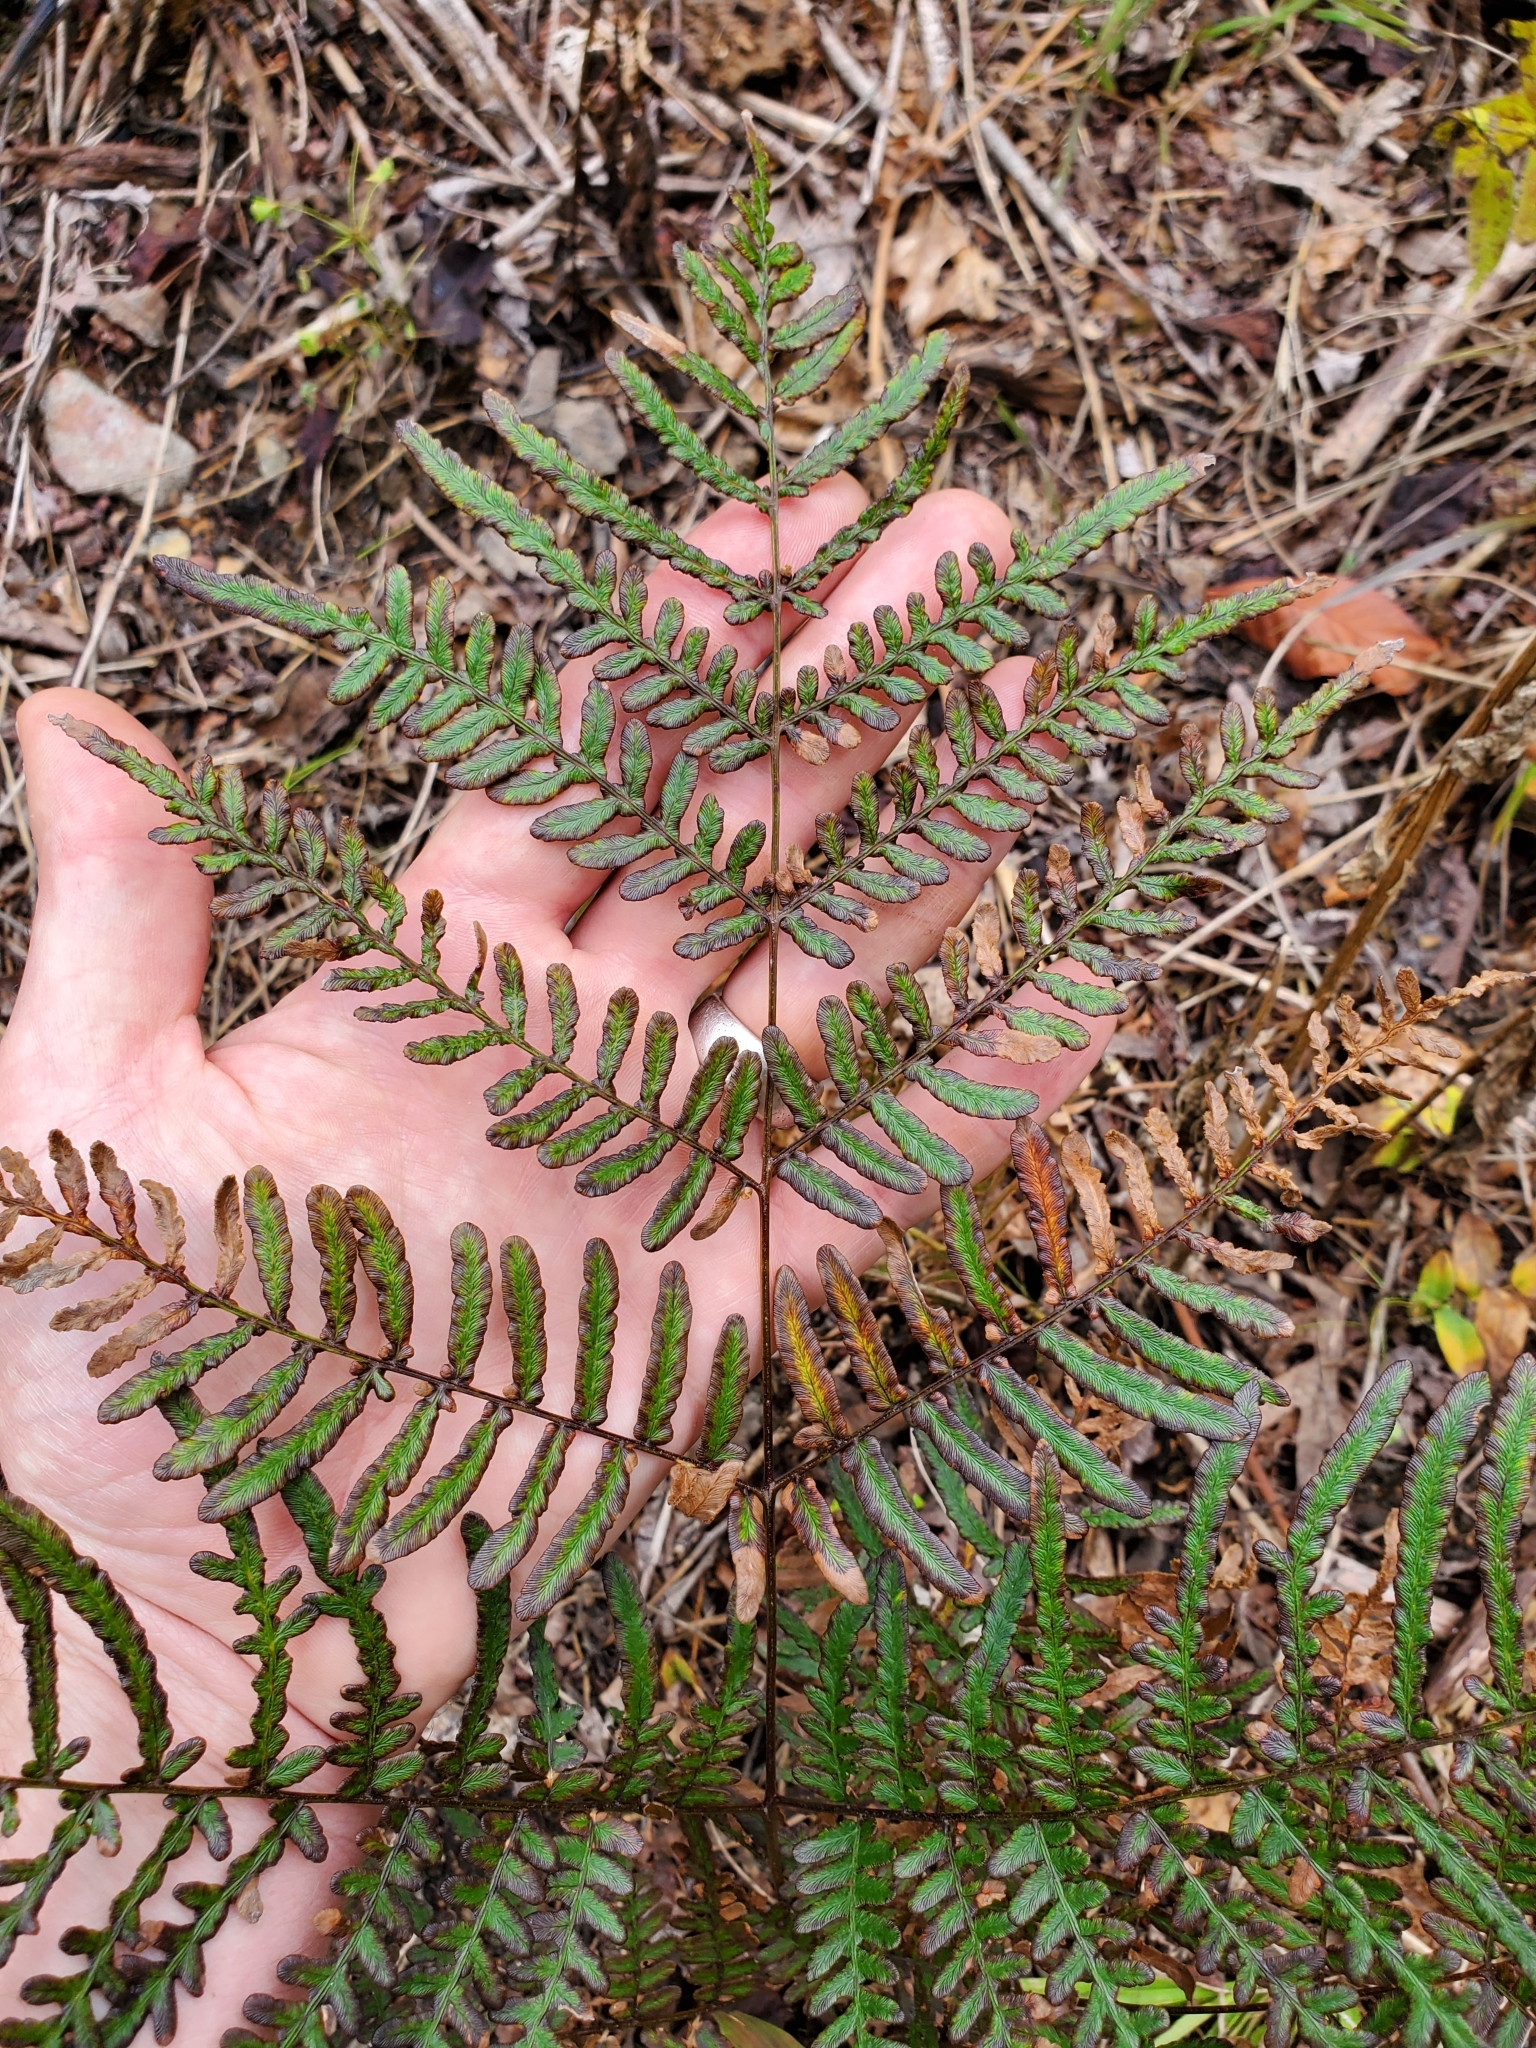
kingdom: Plantae
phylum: Tracheophyta
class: Polypodiopsida
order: Polypodiales
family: Dennstaedtiaceae
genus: Pteridium
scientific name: Pteridium aquilinum
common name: Bracken
